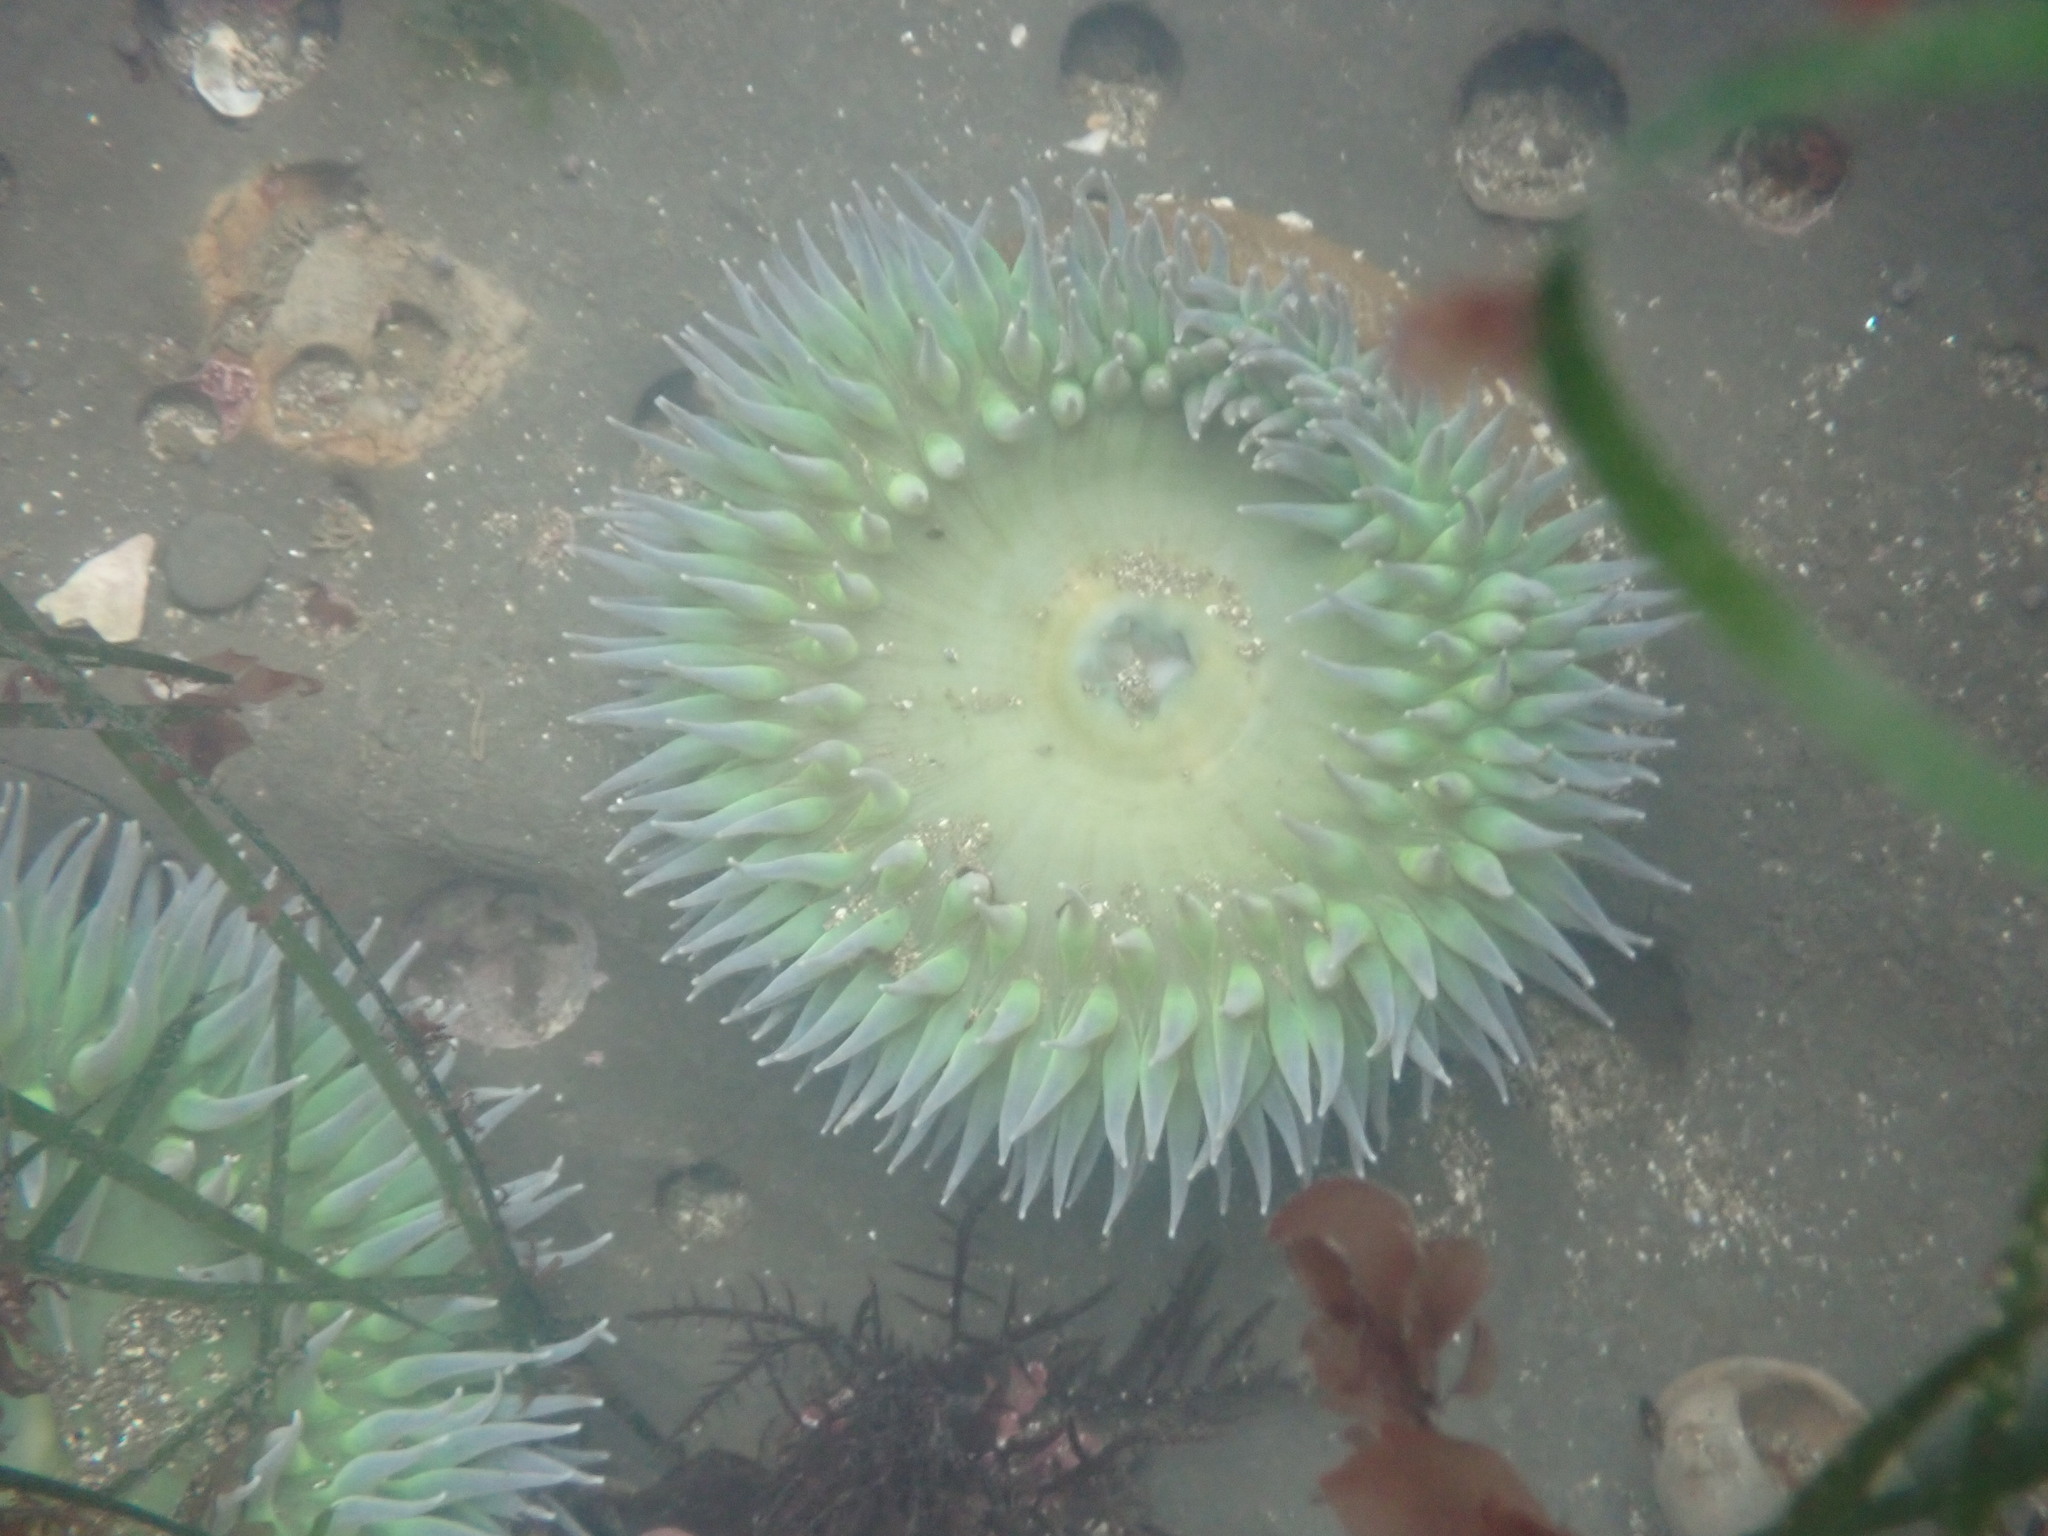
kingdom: Animalia
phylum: Cnidaria
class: Anthozoa
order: Actiniaria
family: Actiniidae
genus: Anthopleura
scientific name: Anthopleura xanthogrammica
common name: Giant green anemone
